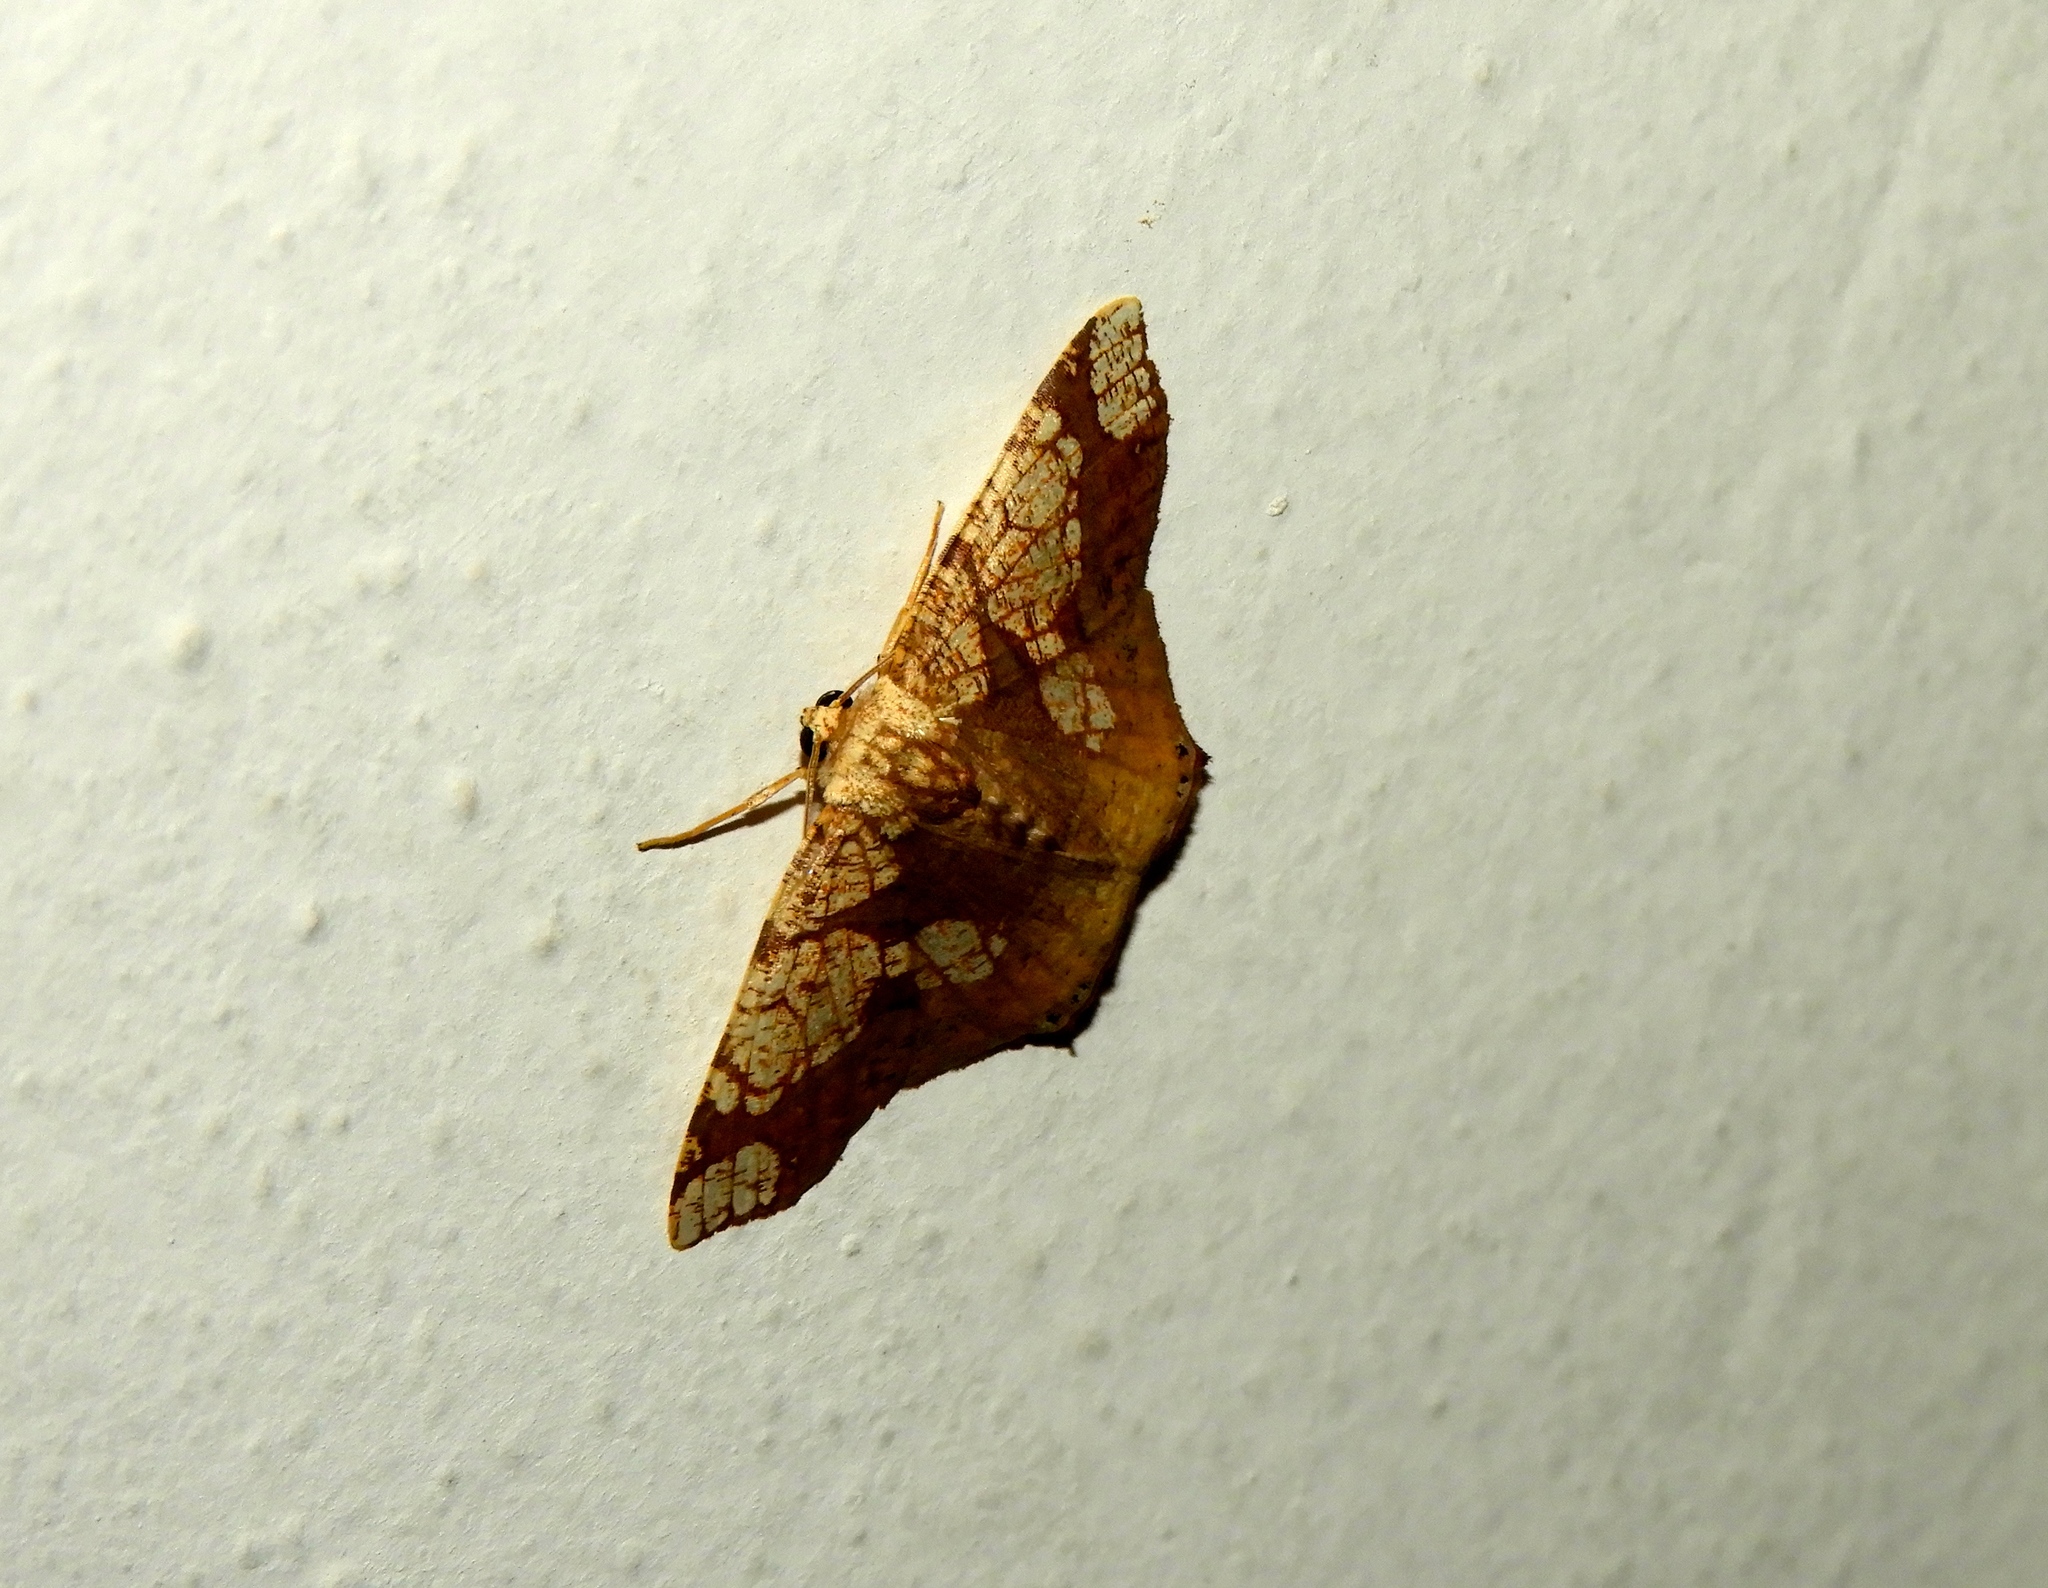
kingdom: Animalia
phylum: Arthropoda
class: Insecta
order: Lepidoptera
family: Geometridae
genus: Nematocampa
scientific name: Nematocampa completa
